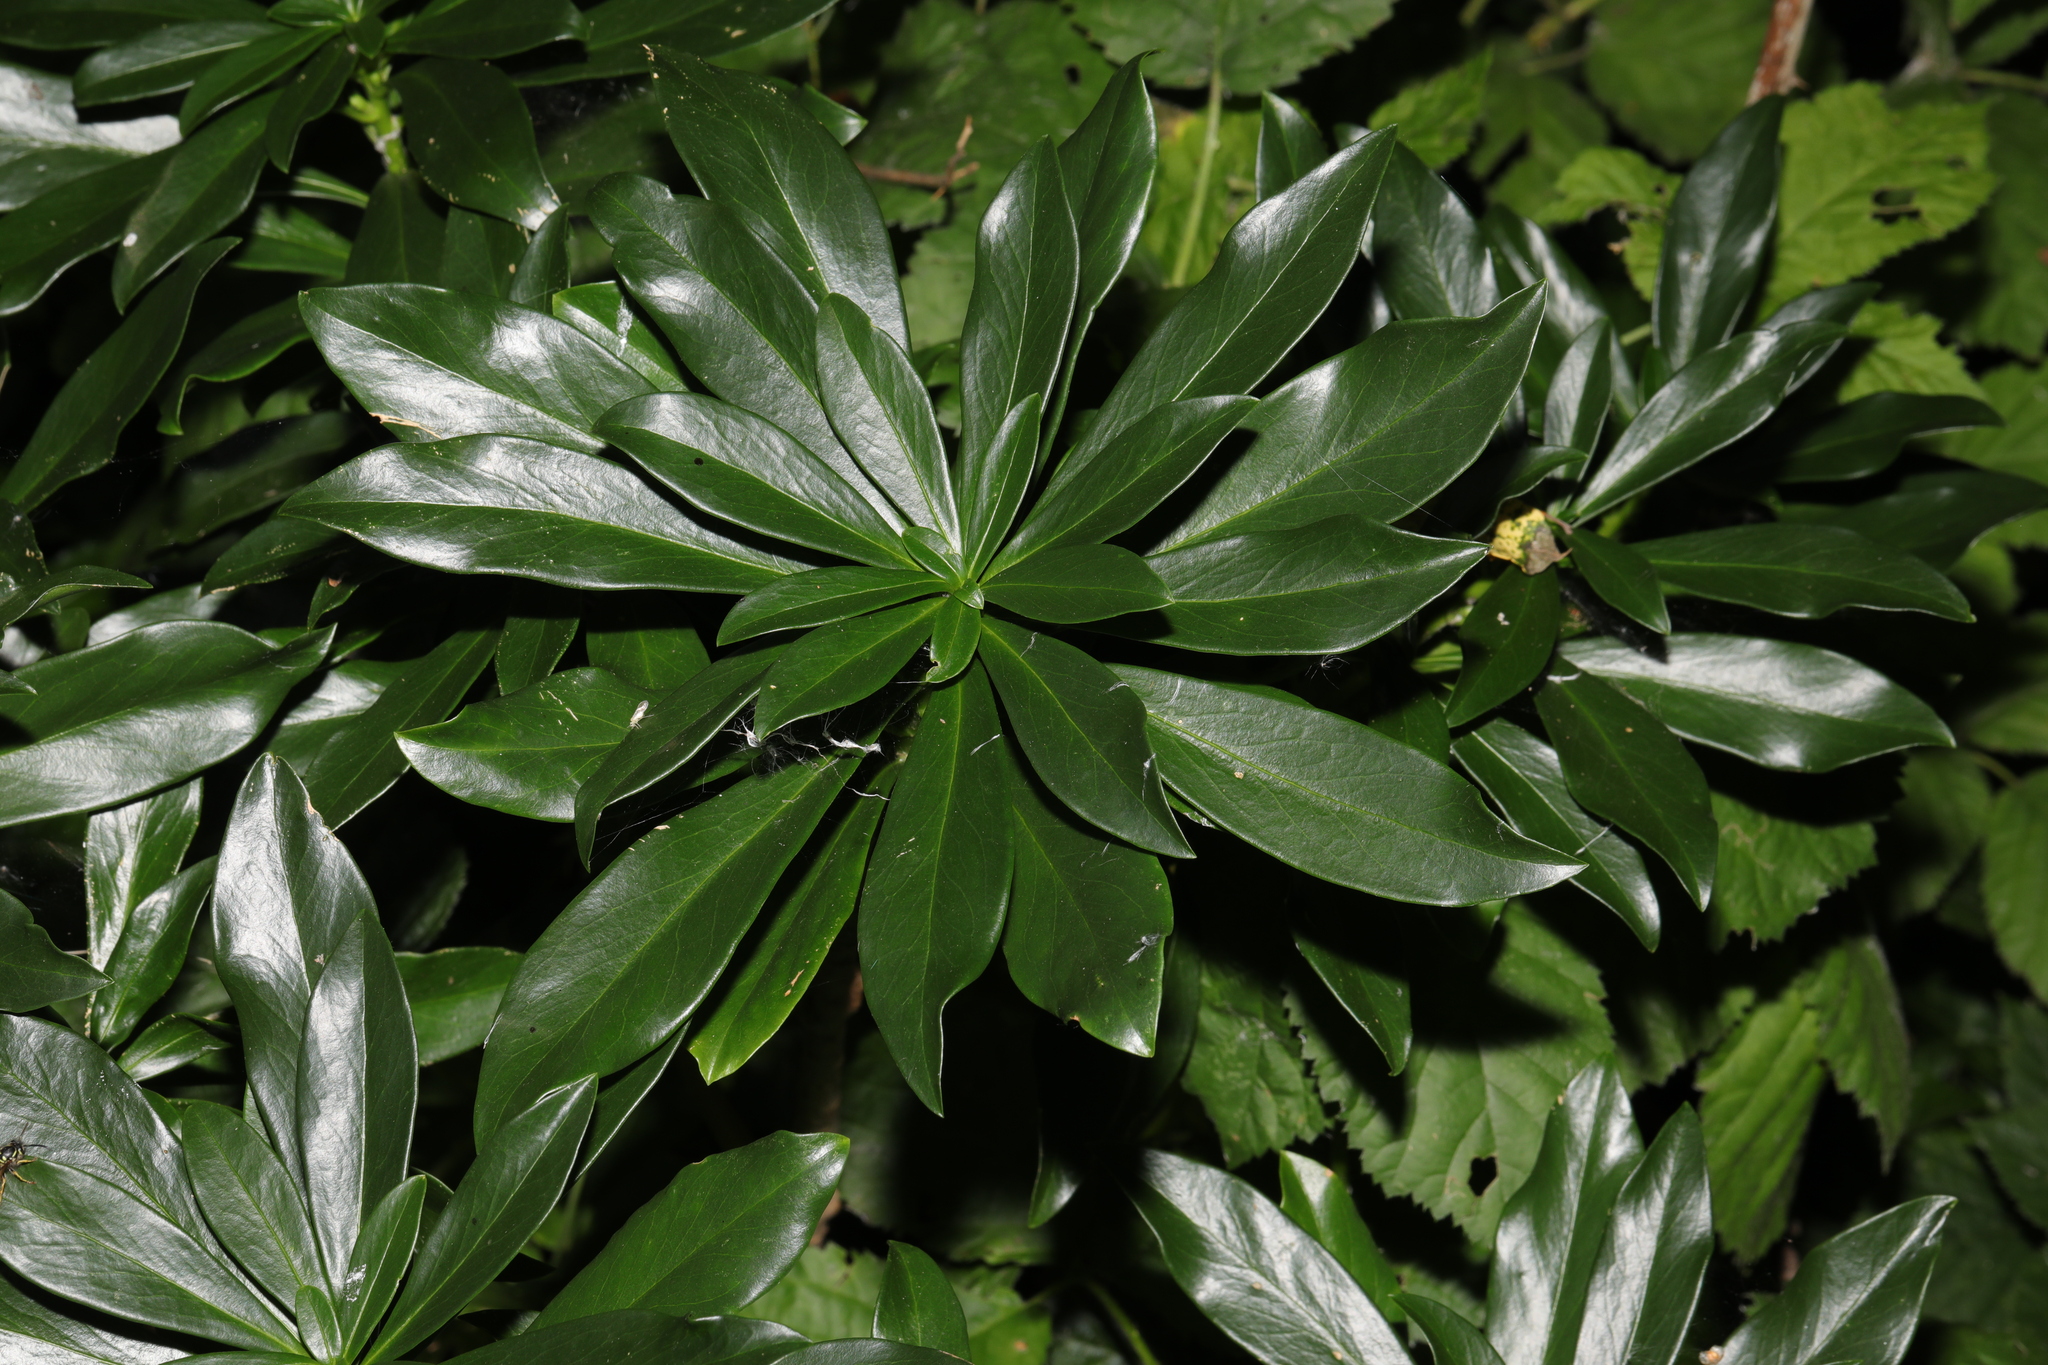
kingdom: Plantae
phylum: Tracheophyta
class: Magnoliopsida
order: Malvales
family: Thymelaeaceae
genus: Daphne
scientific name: Daphne laureola
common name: Spurge-laurel
